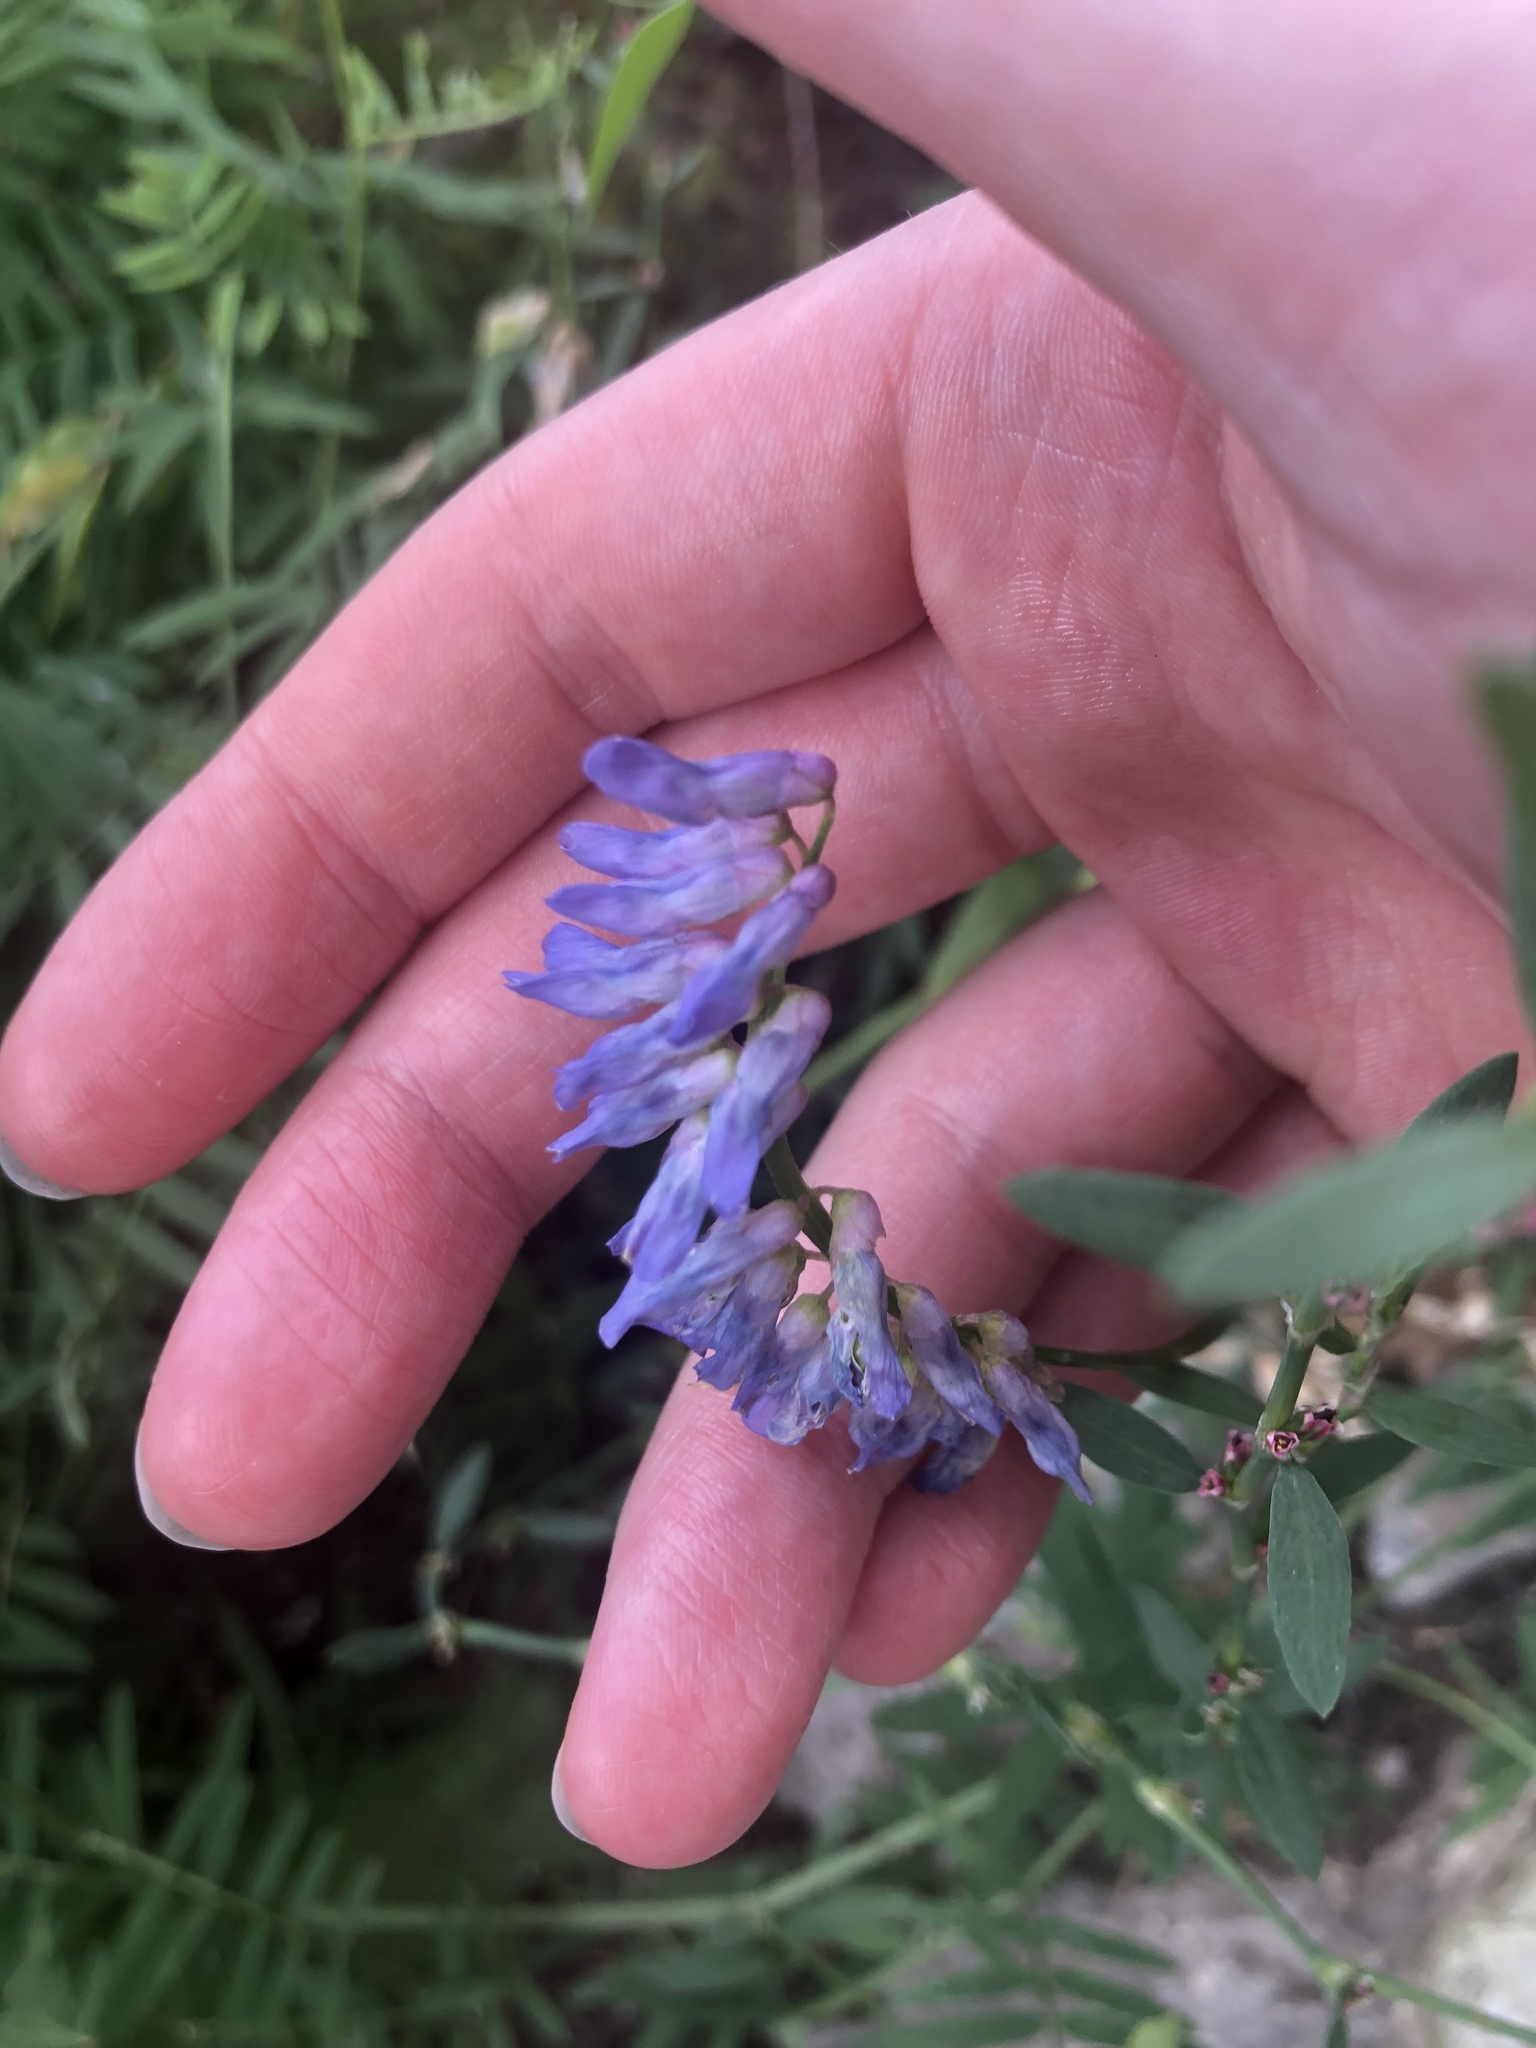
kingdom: Plantae
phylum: Tracheophyta
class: Magnoliopsida
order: Fabales
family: Fabaceae
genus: Vicia
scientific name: Vicia cracca
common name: Bird vetch
